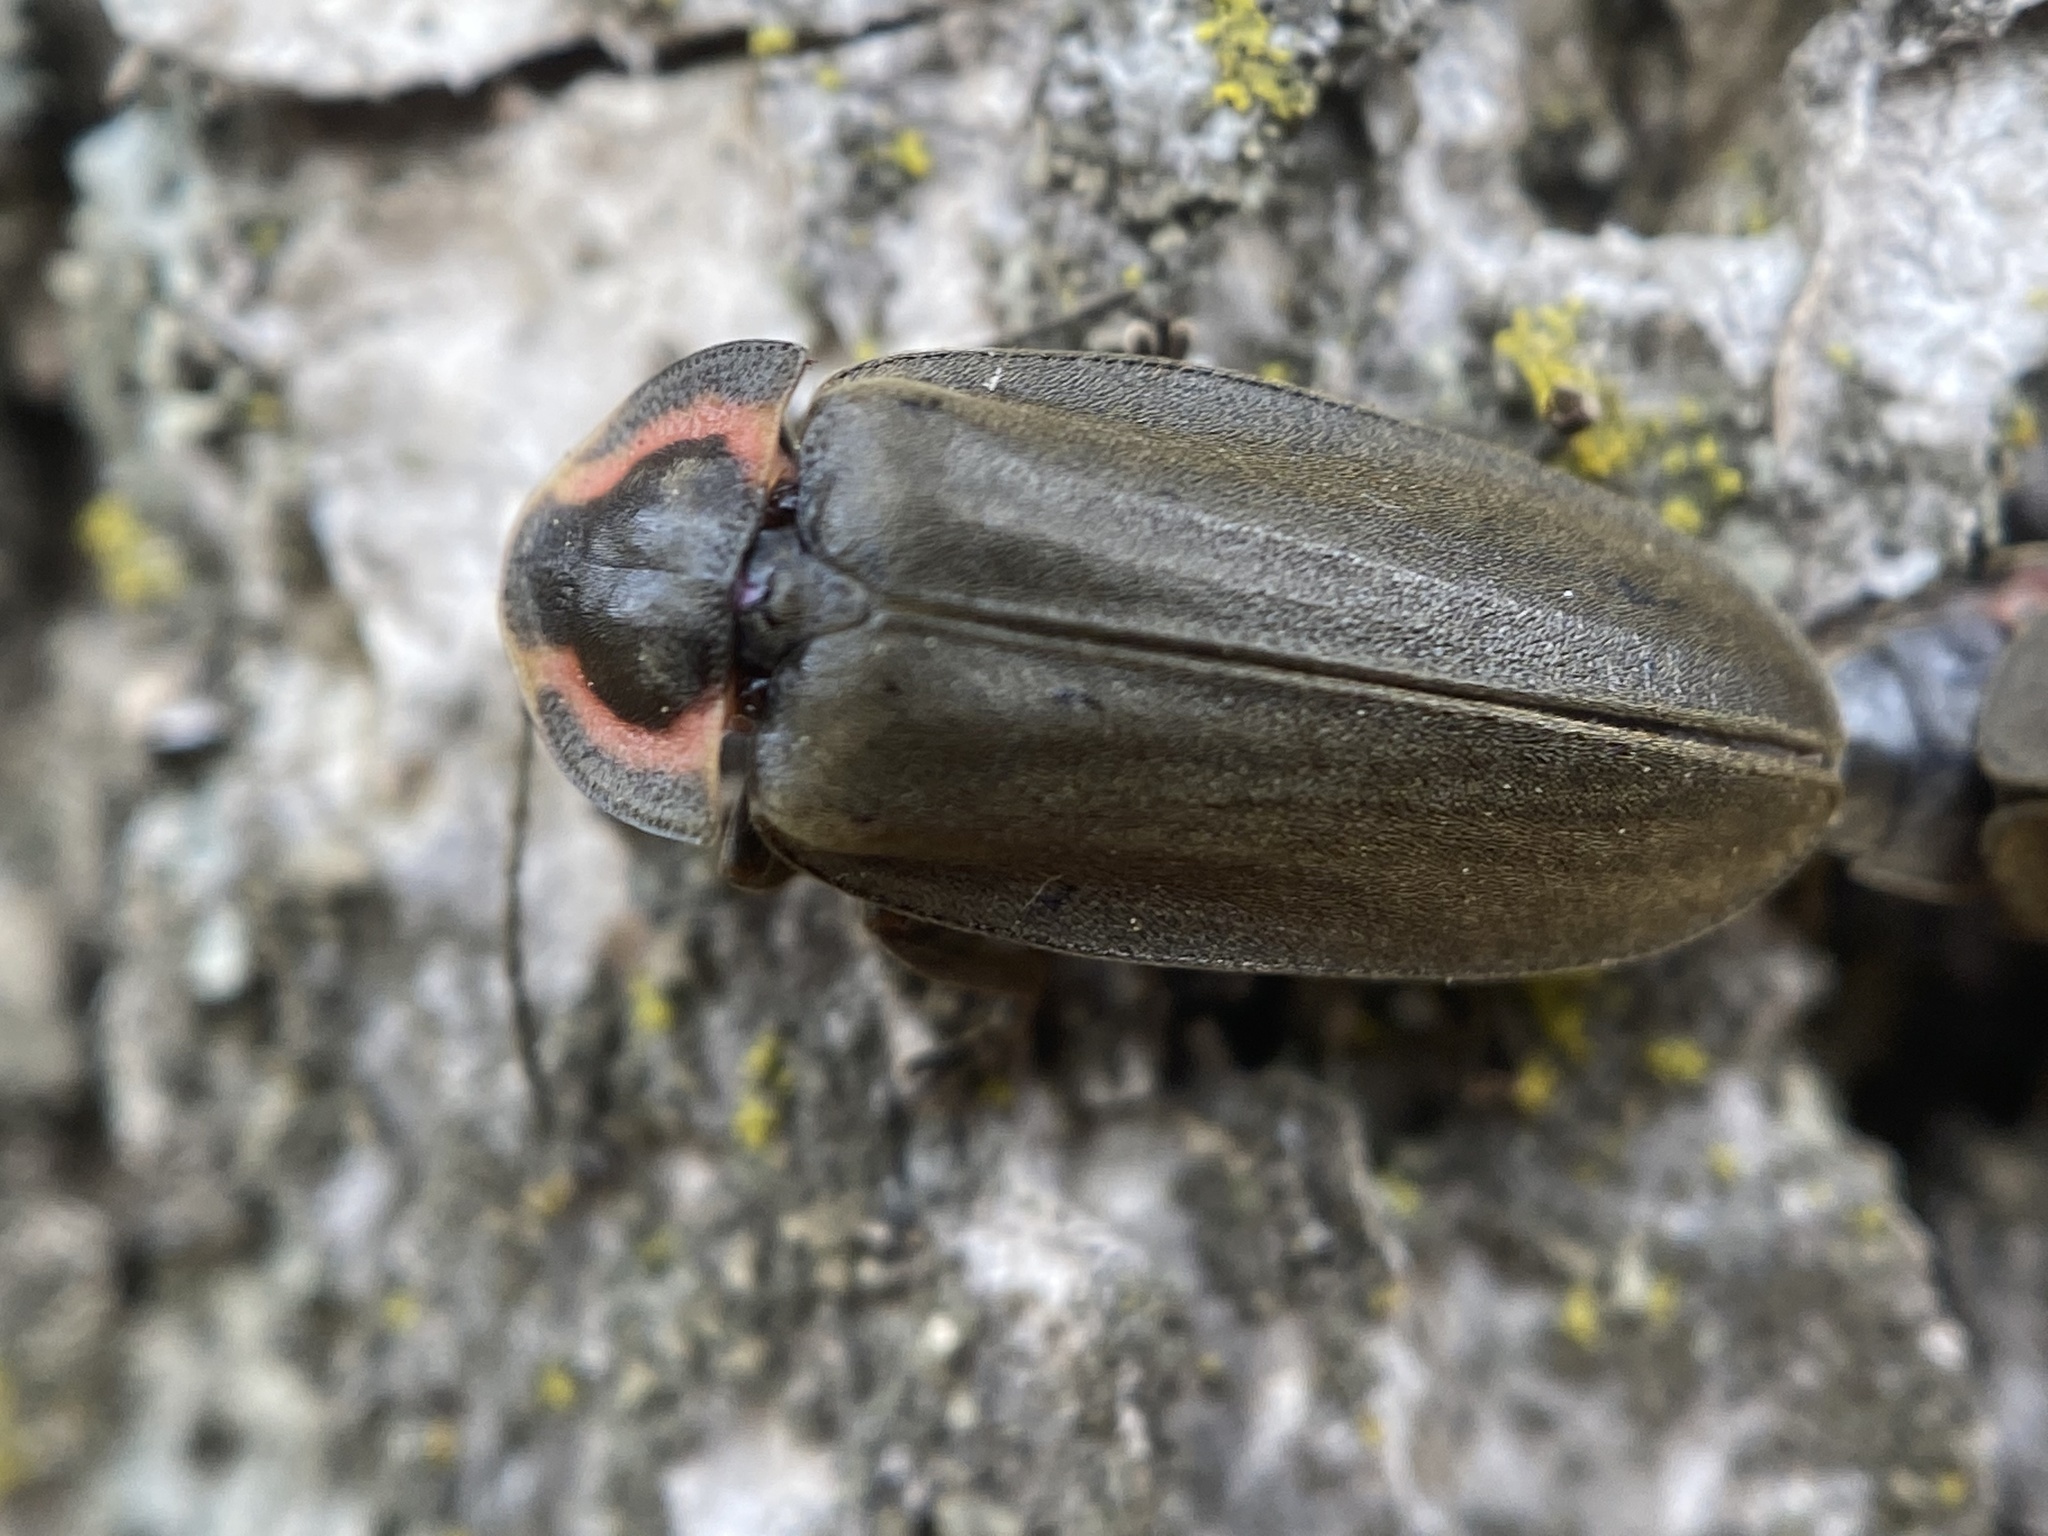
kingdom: Animalia
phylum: Arthropoda
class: Insecta
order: Coleoptera
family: Lampyridae
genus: Photinus
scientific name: Photinus corrusca
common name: Winter firefly
